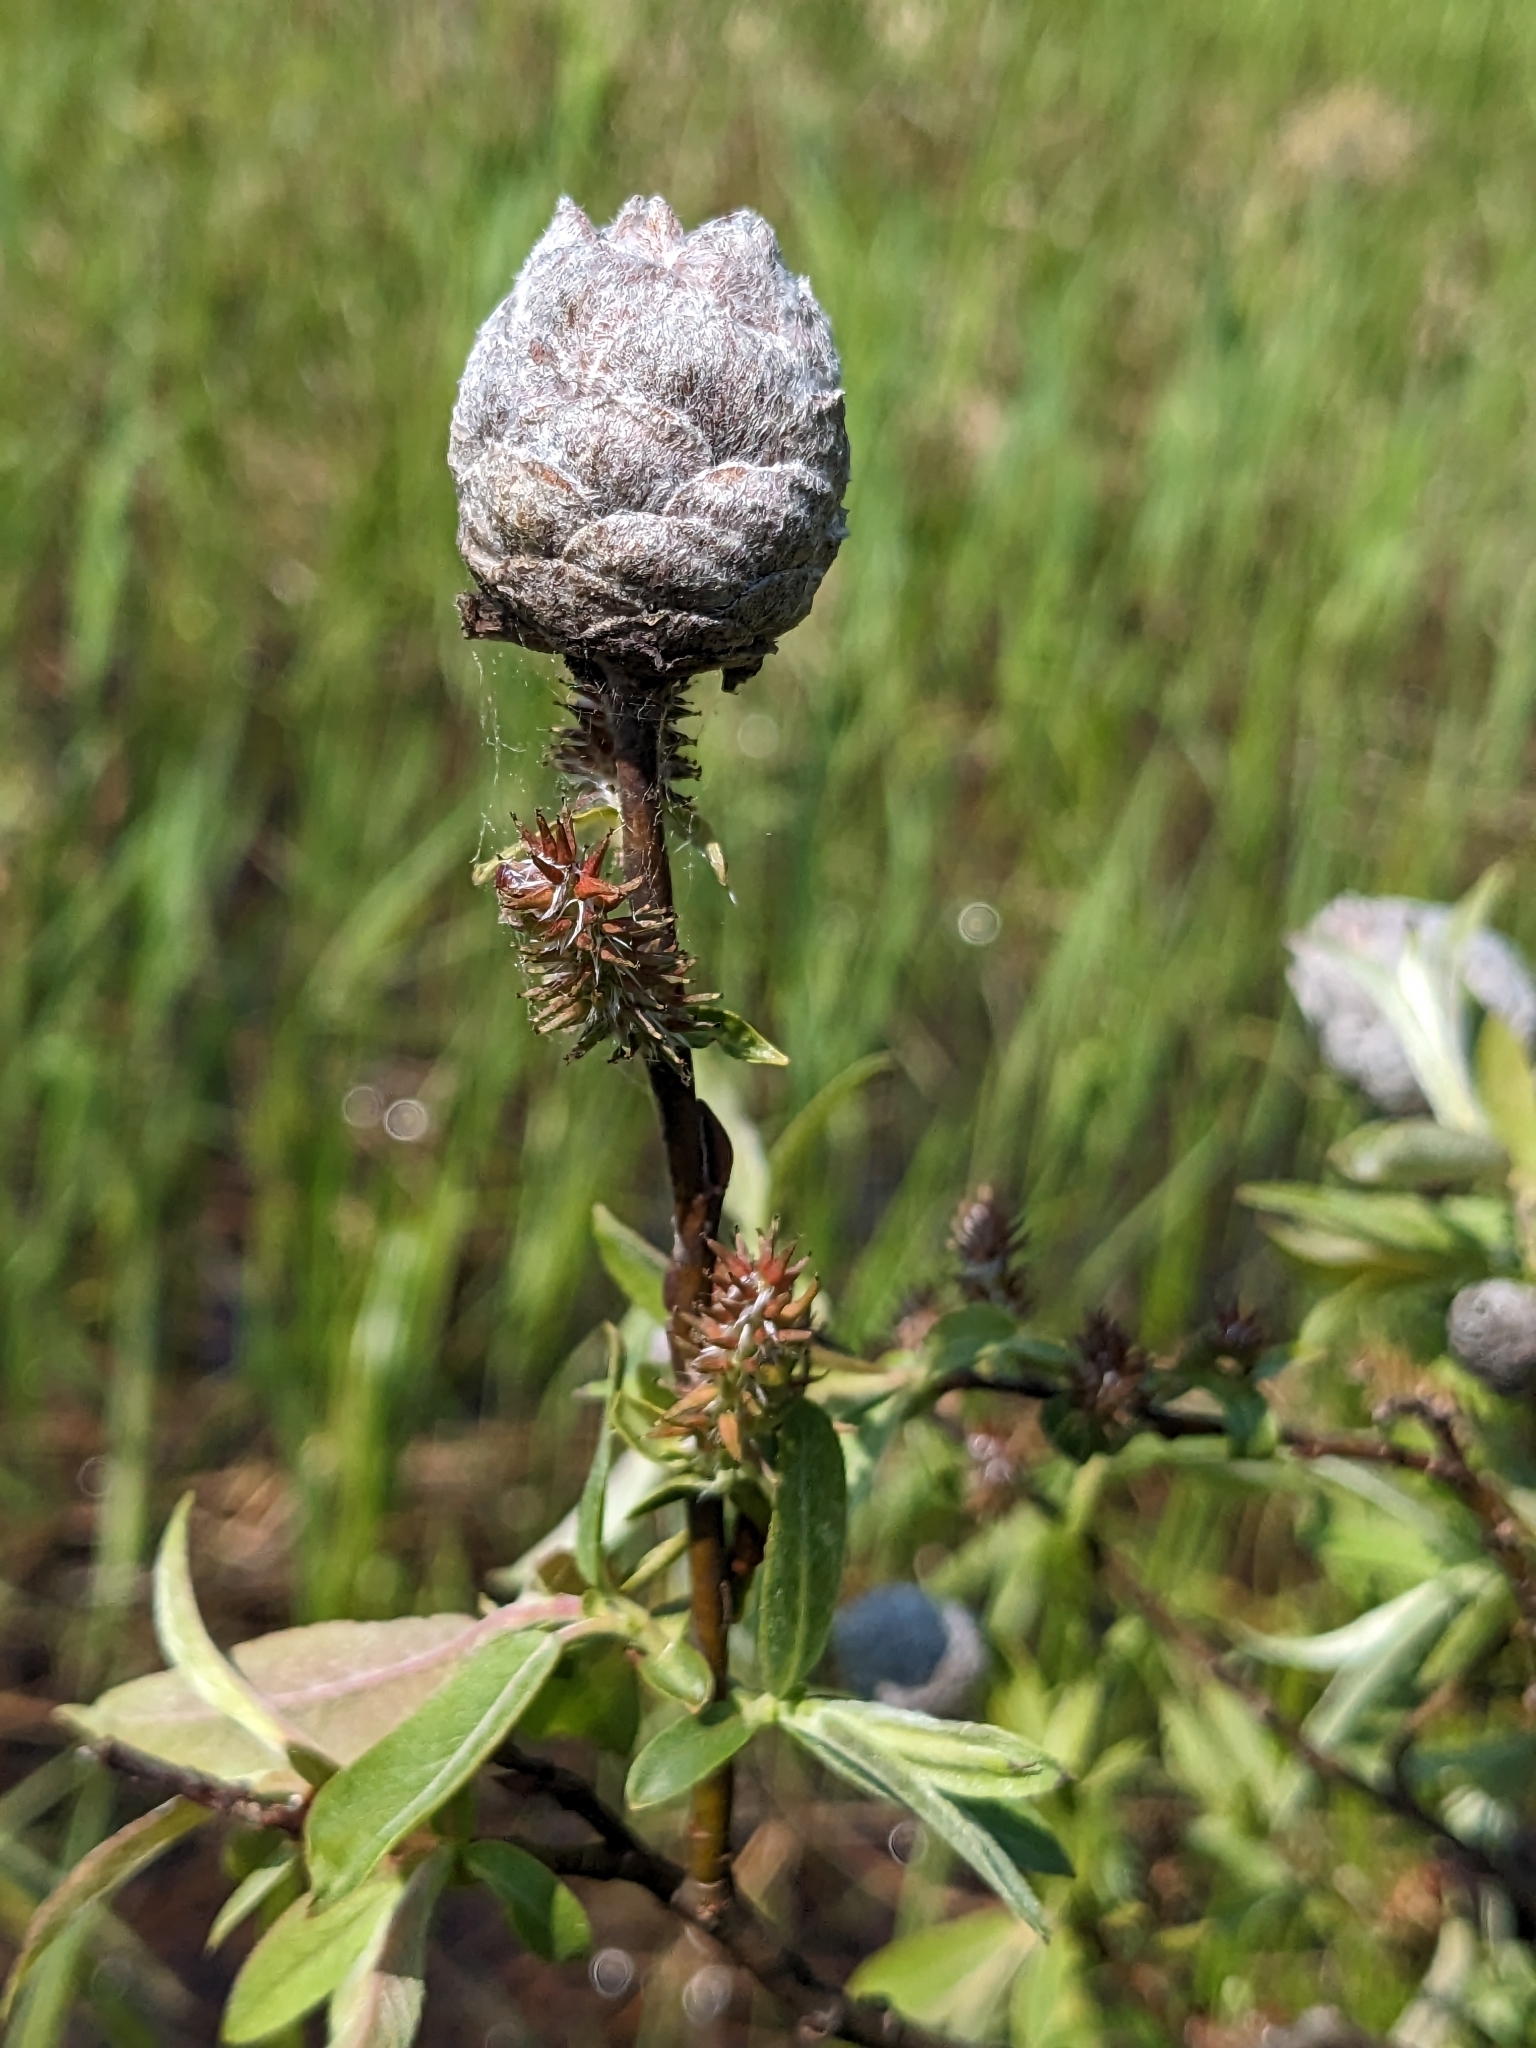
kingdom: Animalia
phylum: Arthropoda
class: Insecta
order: Diptera
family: Cecidomyiidae
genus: Rabdophaga
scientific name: Rabdophaga strobiloides
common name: Willow pinecone gall midge
